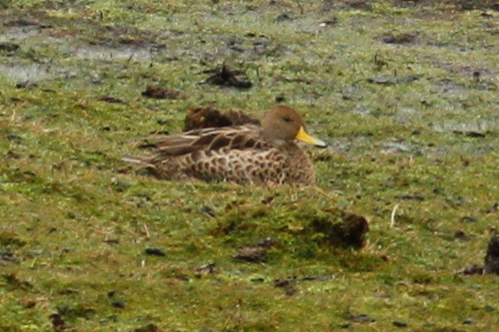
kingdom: Animalia
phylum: Chordata
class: Aves
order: Anseriformes
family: Anatidae
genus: Anas
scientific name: Anas georgica
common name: Yellow-billed pintail
